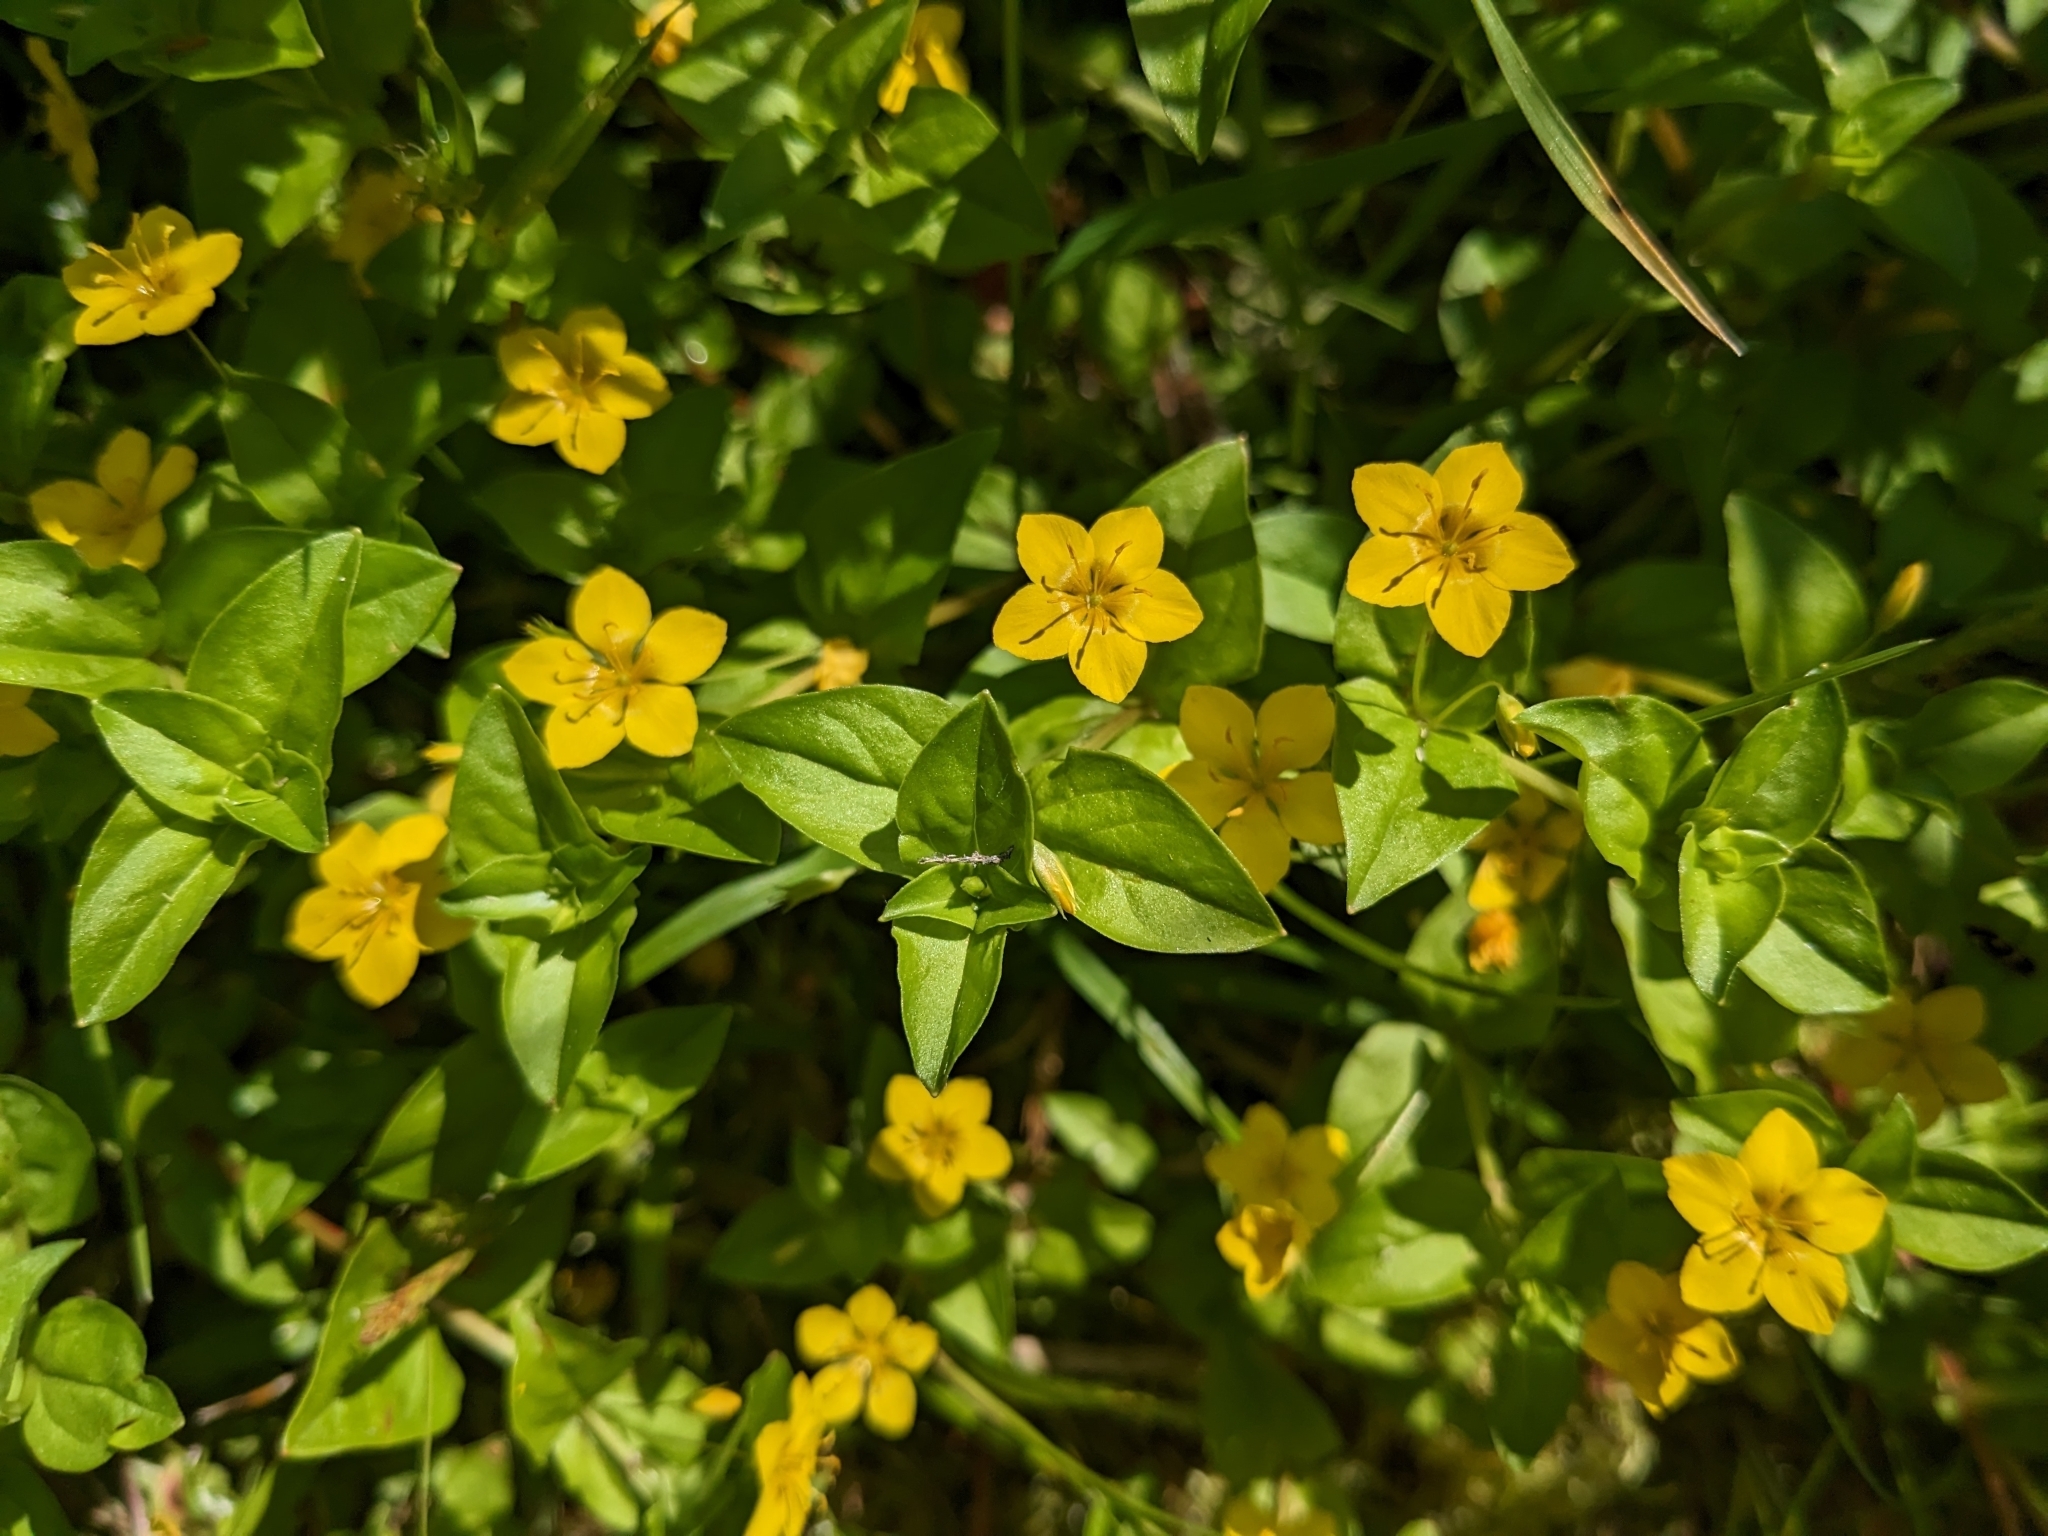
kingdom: Plantae
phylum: Tracheophyta
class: Magnoliopsida
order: Ericales
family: Primulaceae
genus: Lysimachia
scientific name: Lysimachia nemorum
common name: Yellow pimpernel
